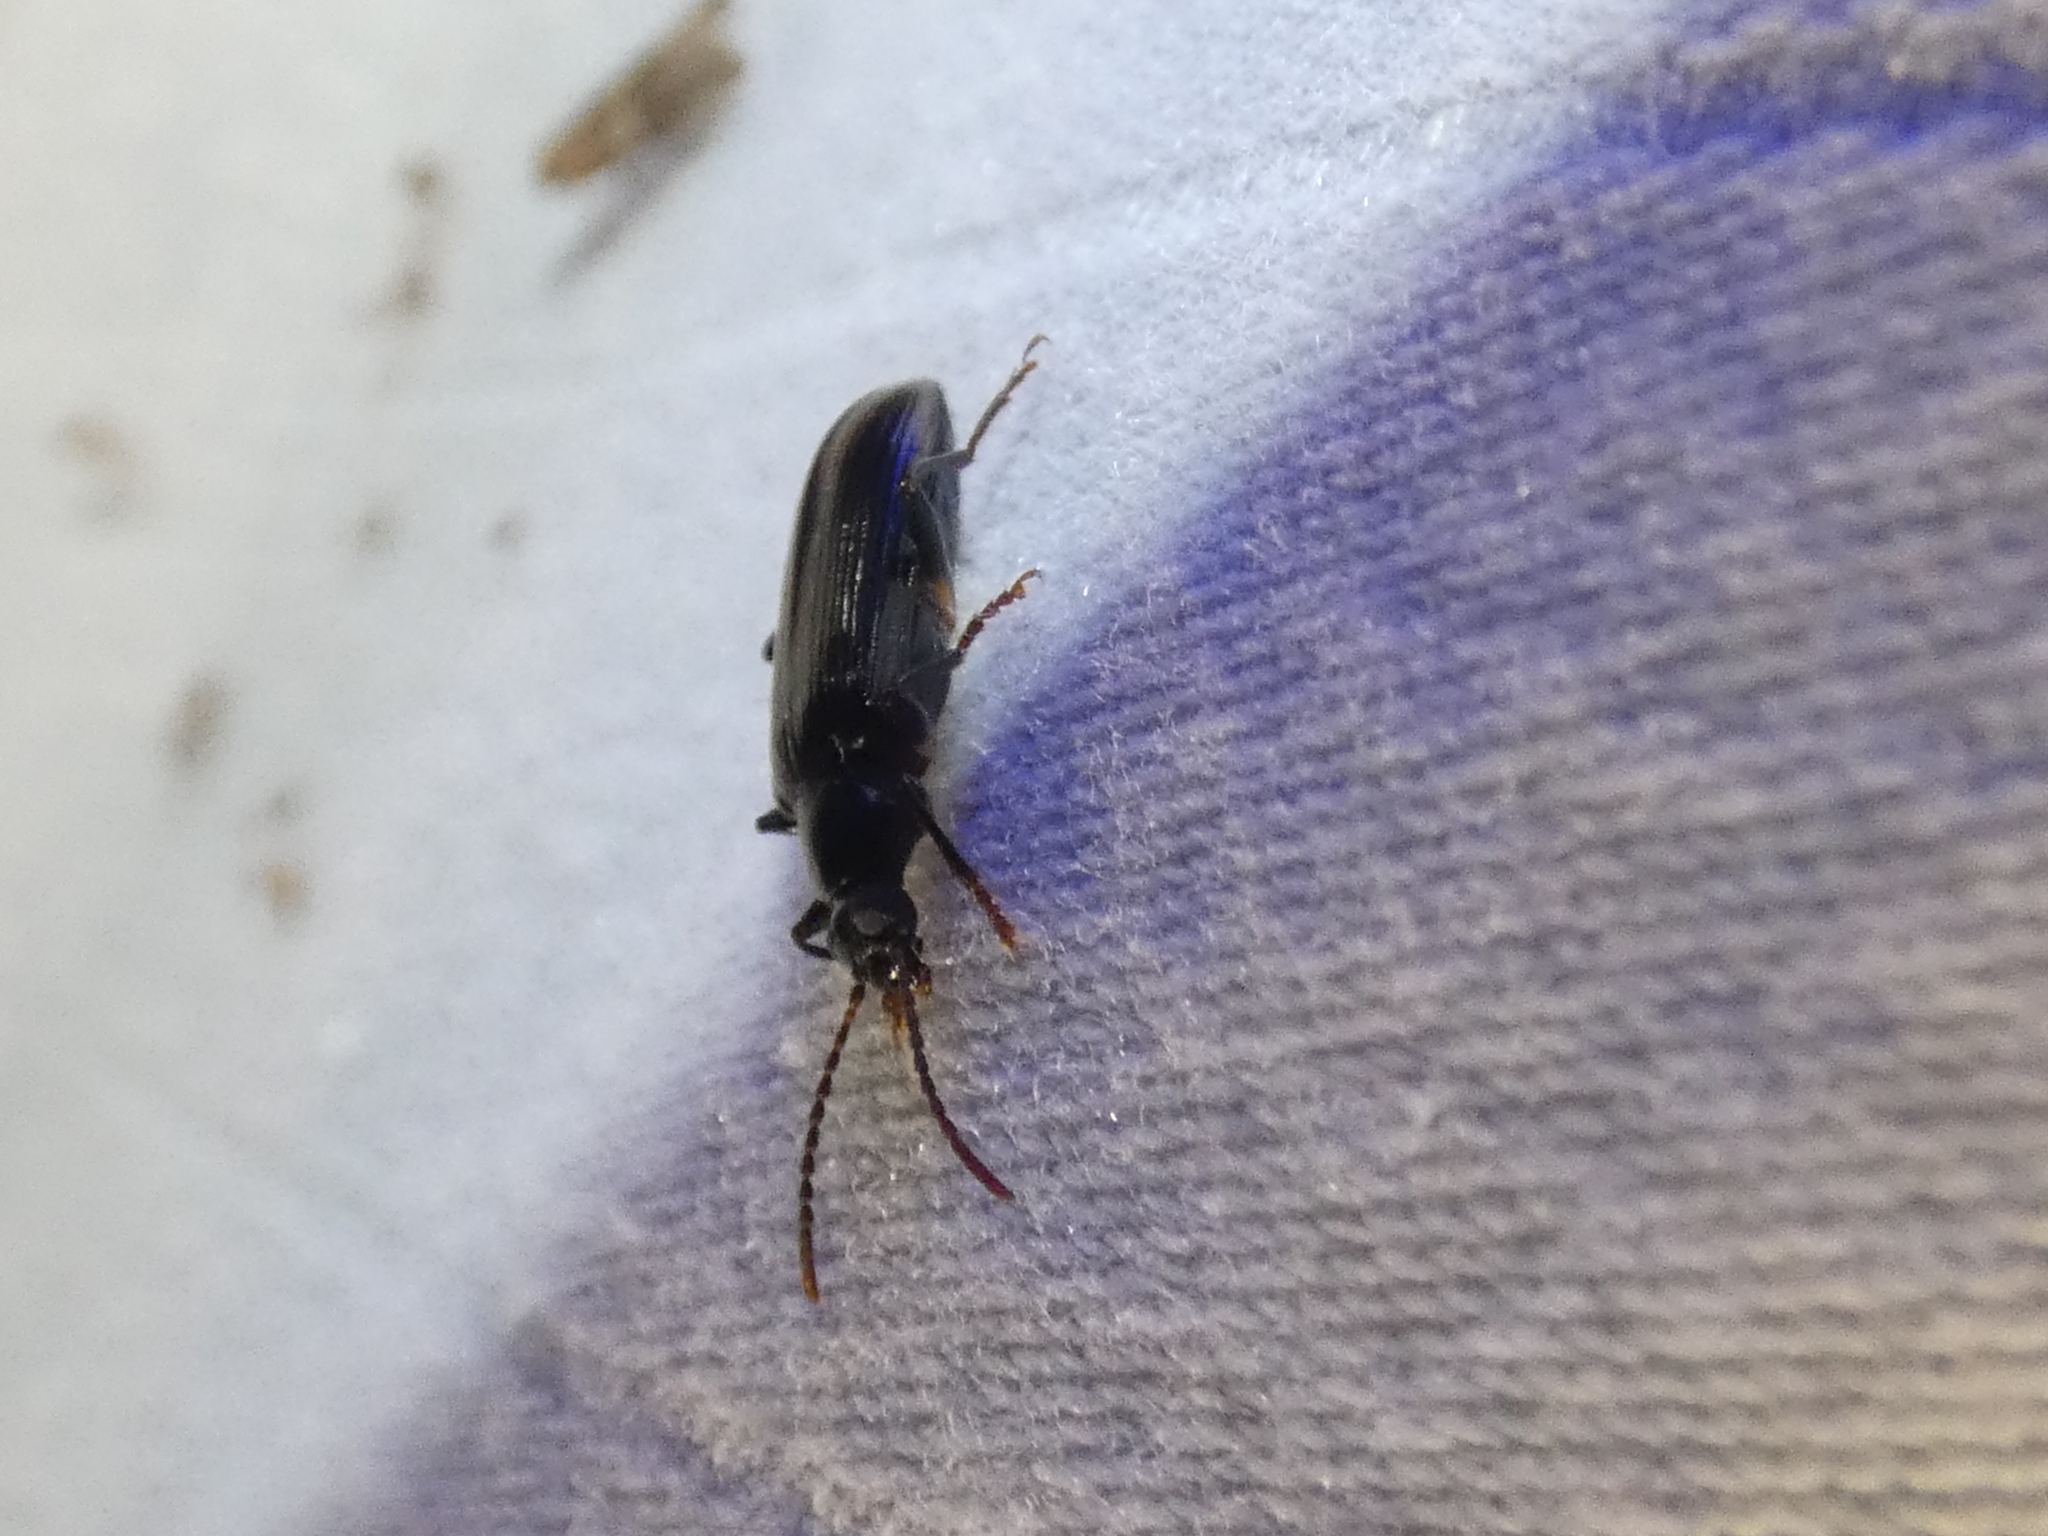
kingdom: Animalia
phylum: Arthropoda
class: Insecta
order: Coleoptera
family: Tenebrionidae
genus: Statira
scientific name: Statira basalis
